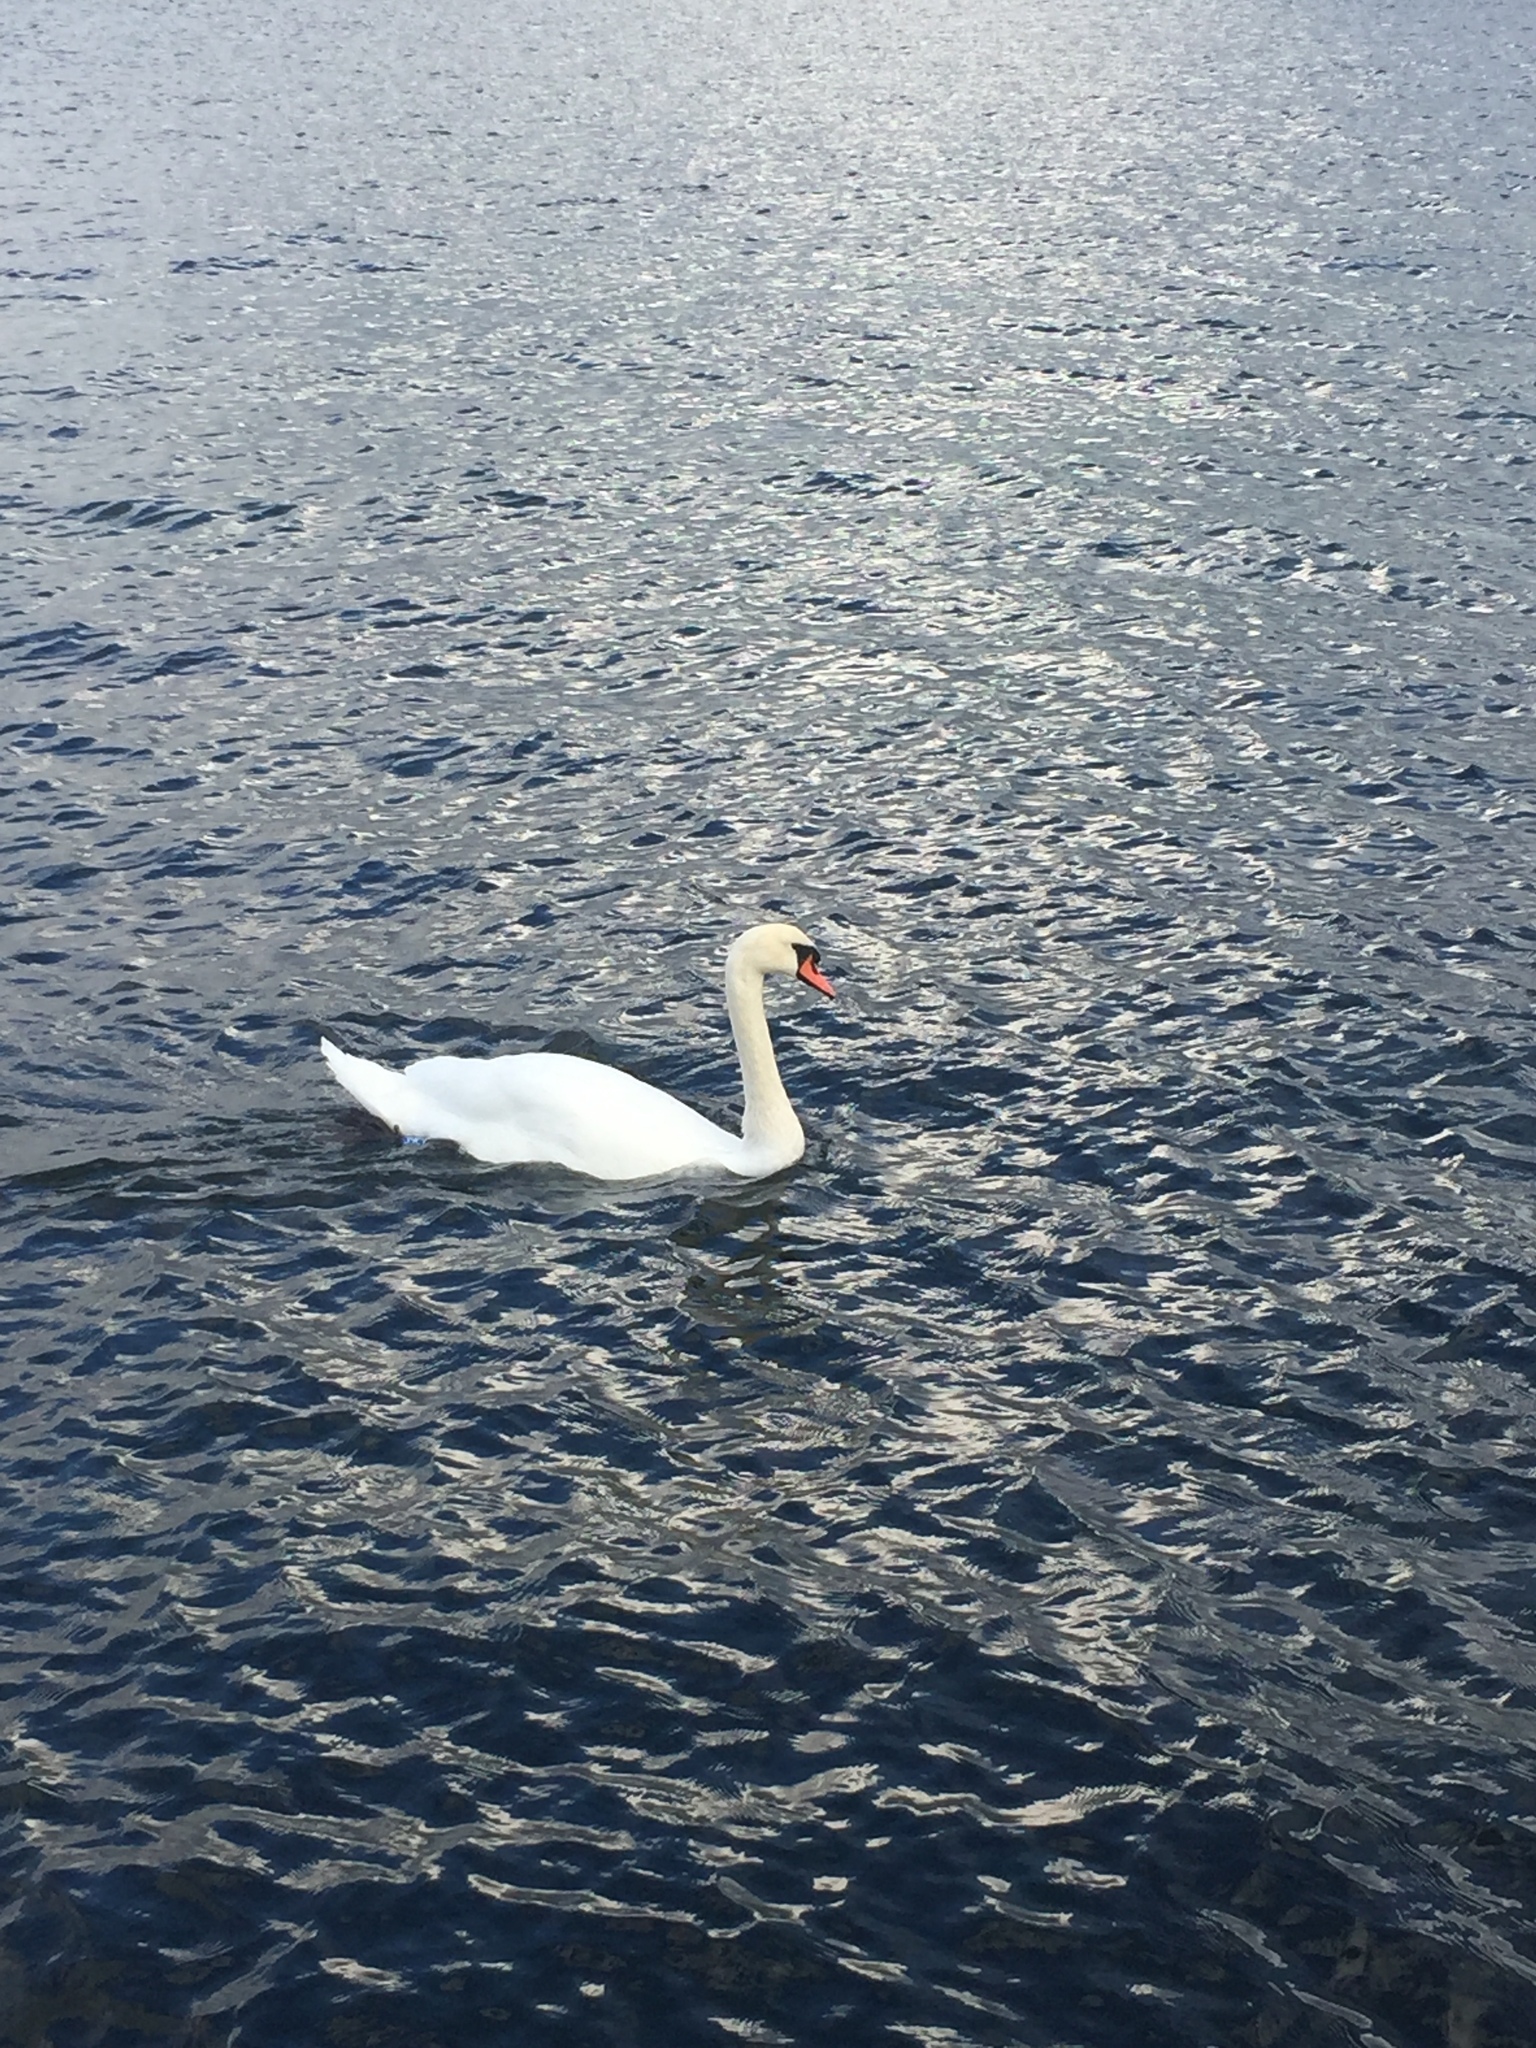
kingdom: Animalia
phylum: Chordata
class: Aves
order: Anseriformes
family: Anatidae
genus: Cygnus
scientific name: Cygnus olor
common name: Mute swan
